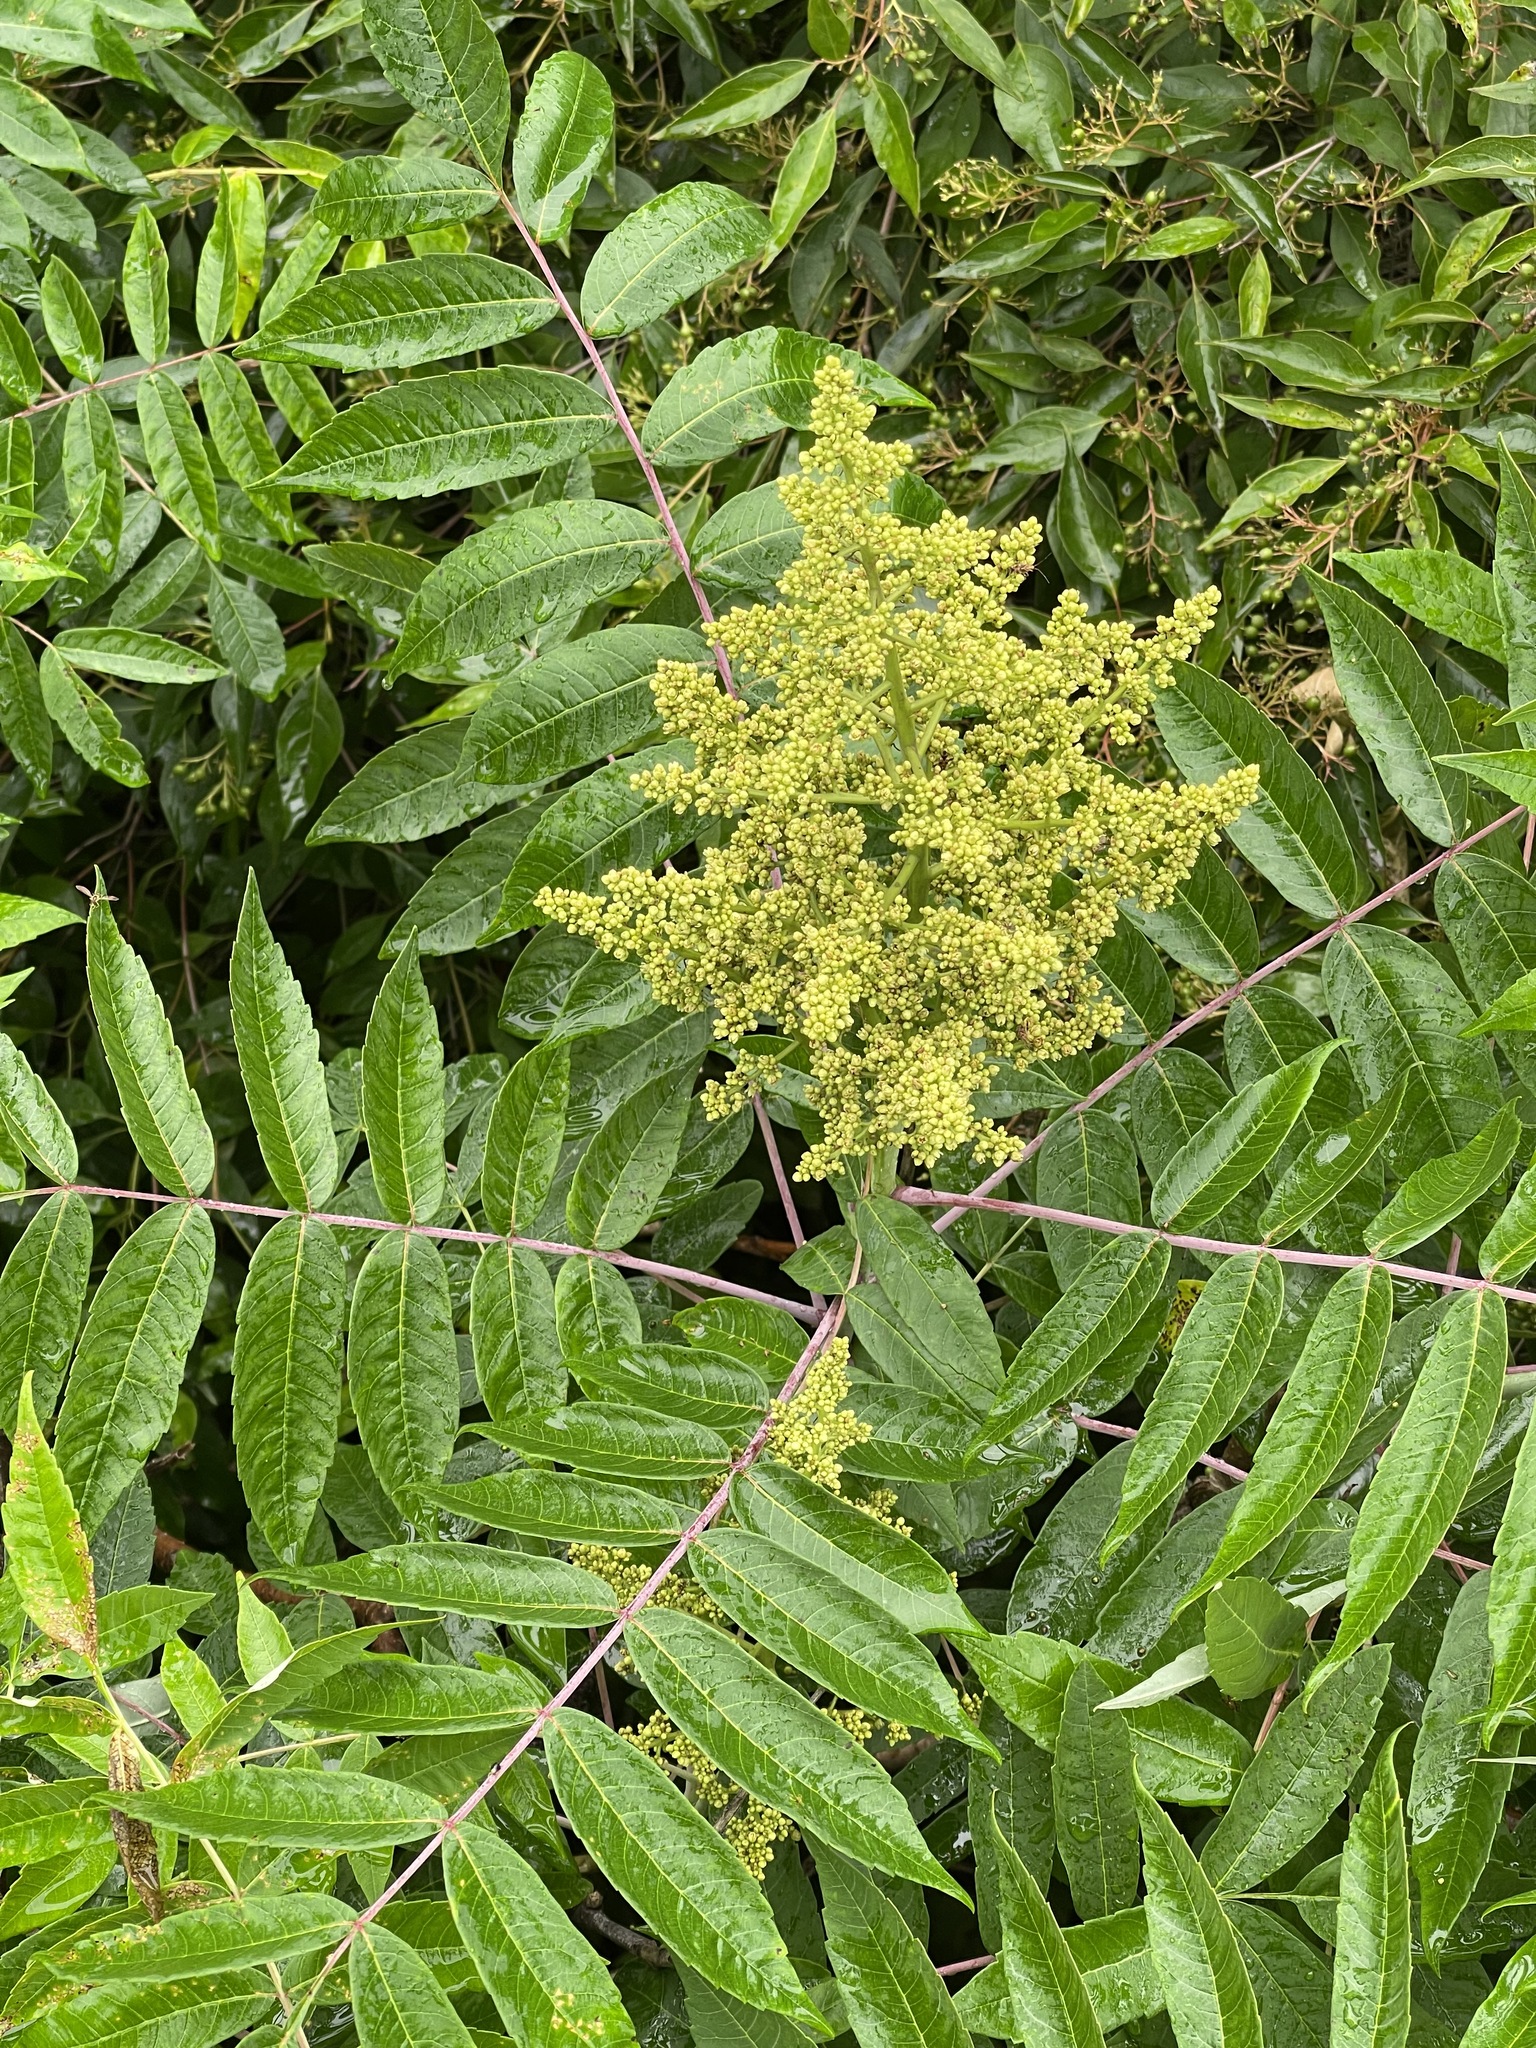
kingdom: Plantae
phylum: Tracheophyta
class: Magnoliopsida
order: Sapindales
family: Anacardiaceae
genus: Rhus
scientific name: Rhus glabra
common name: Scarlet sumac
